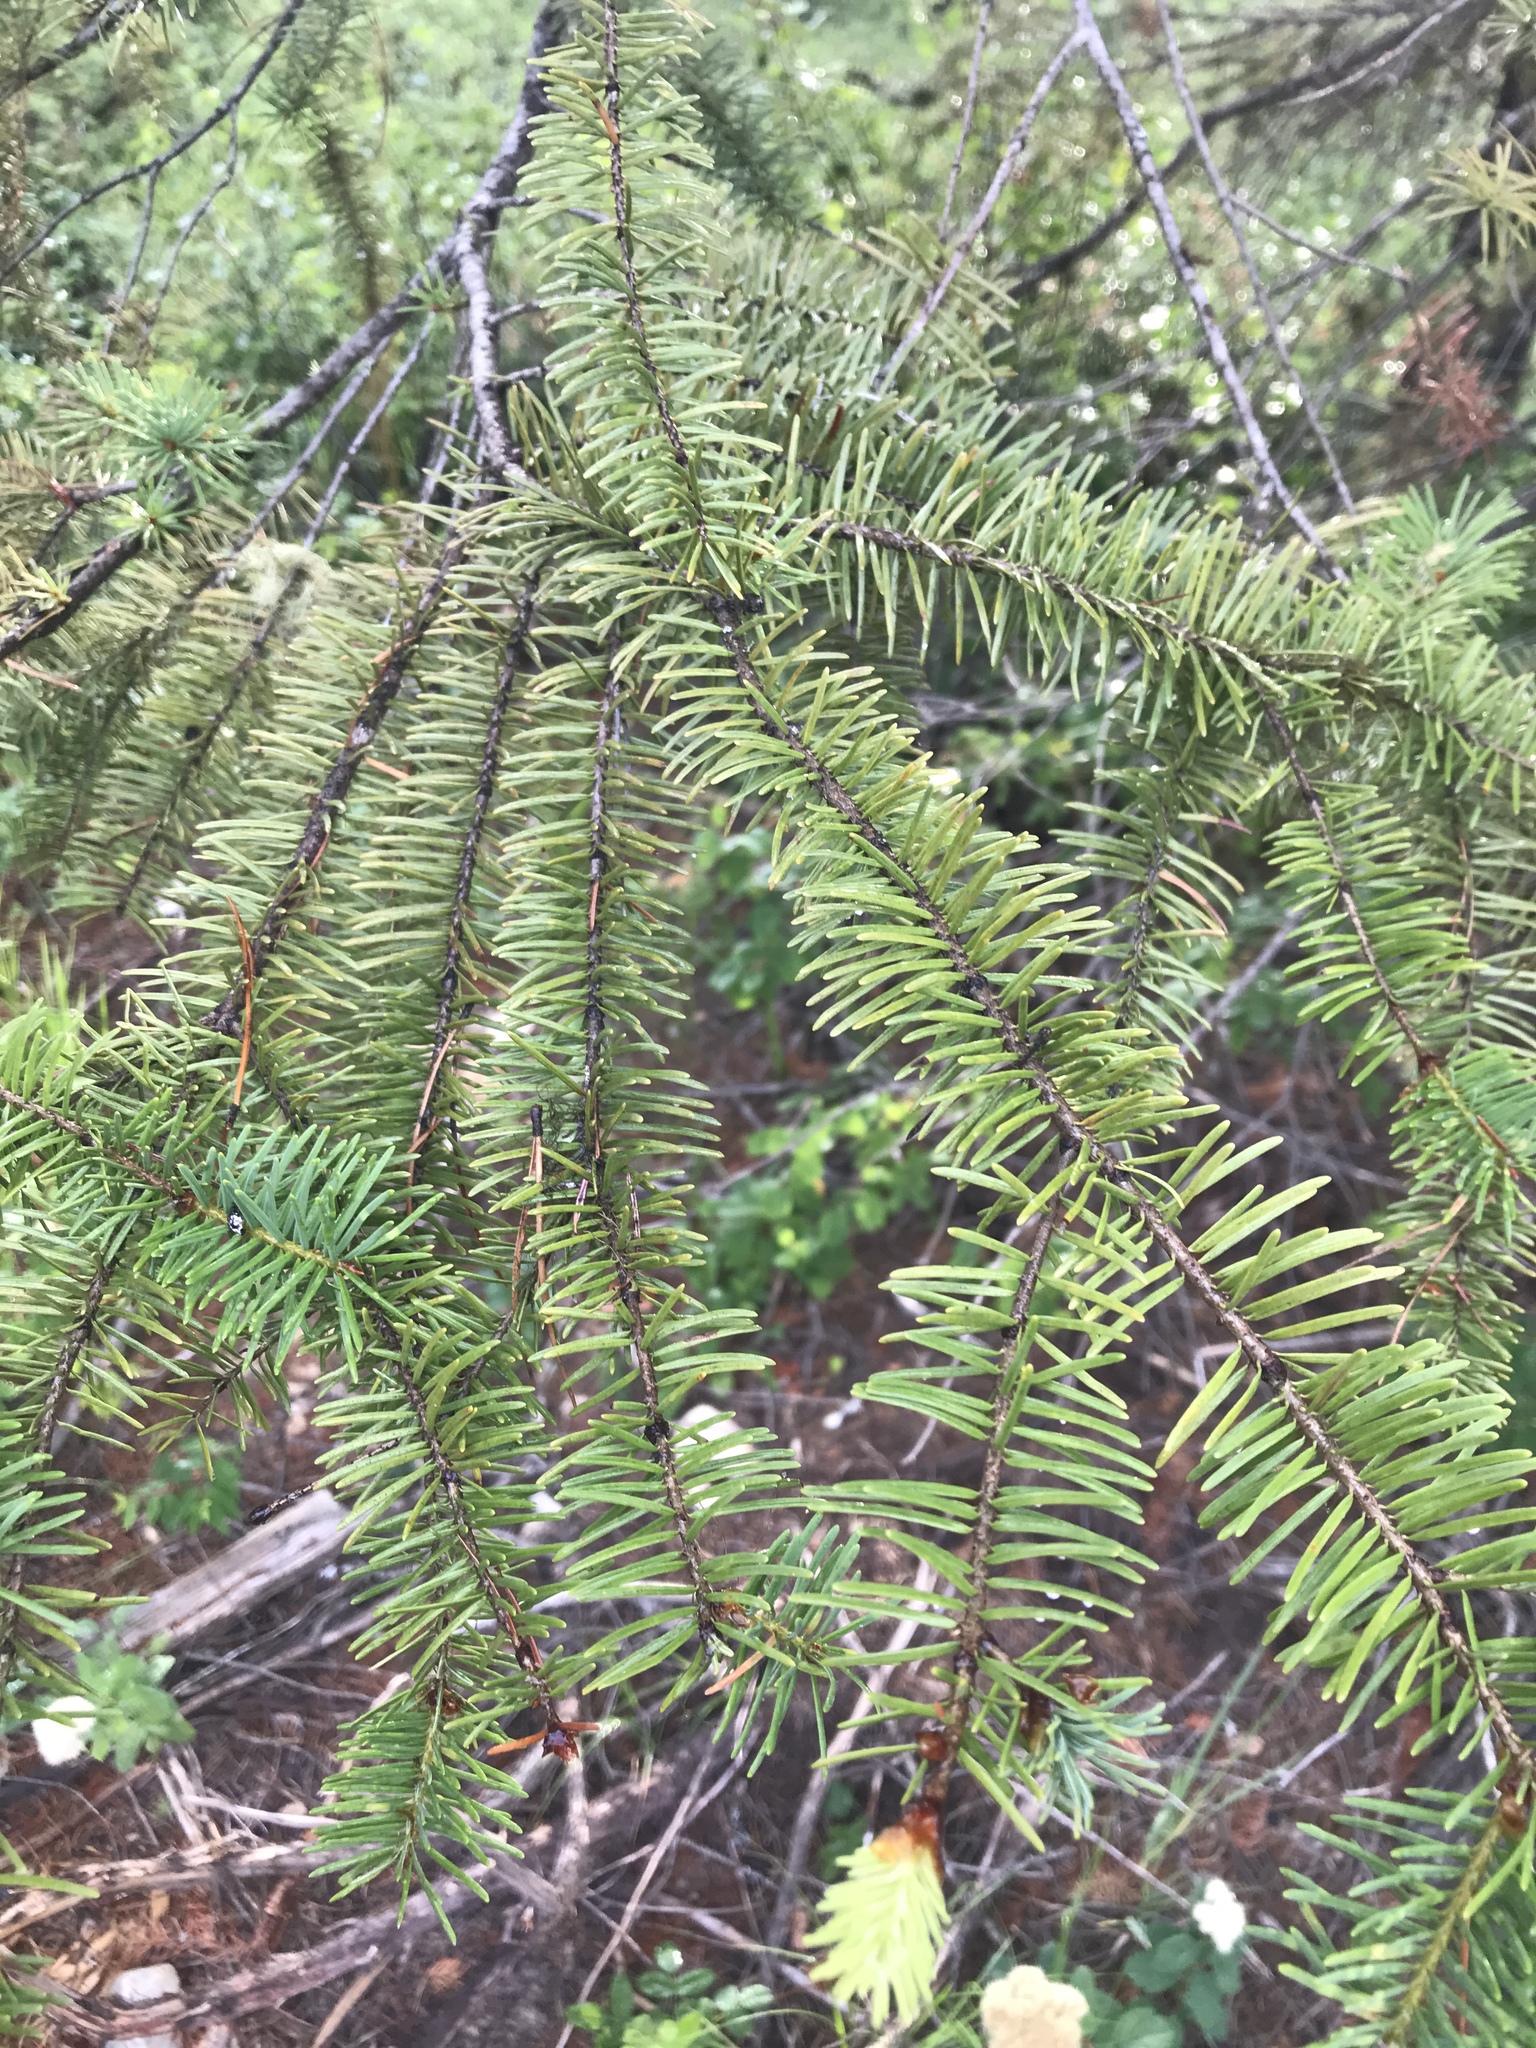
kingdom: Plantae
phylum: Tracheophyta
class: Pinopsida
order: Pinales
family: Pinaceae
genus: Pseudotsuga
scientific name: Pseudotsuga menziesii
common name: Douglas fir
